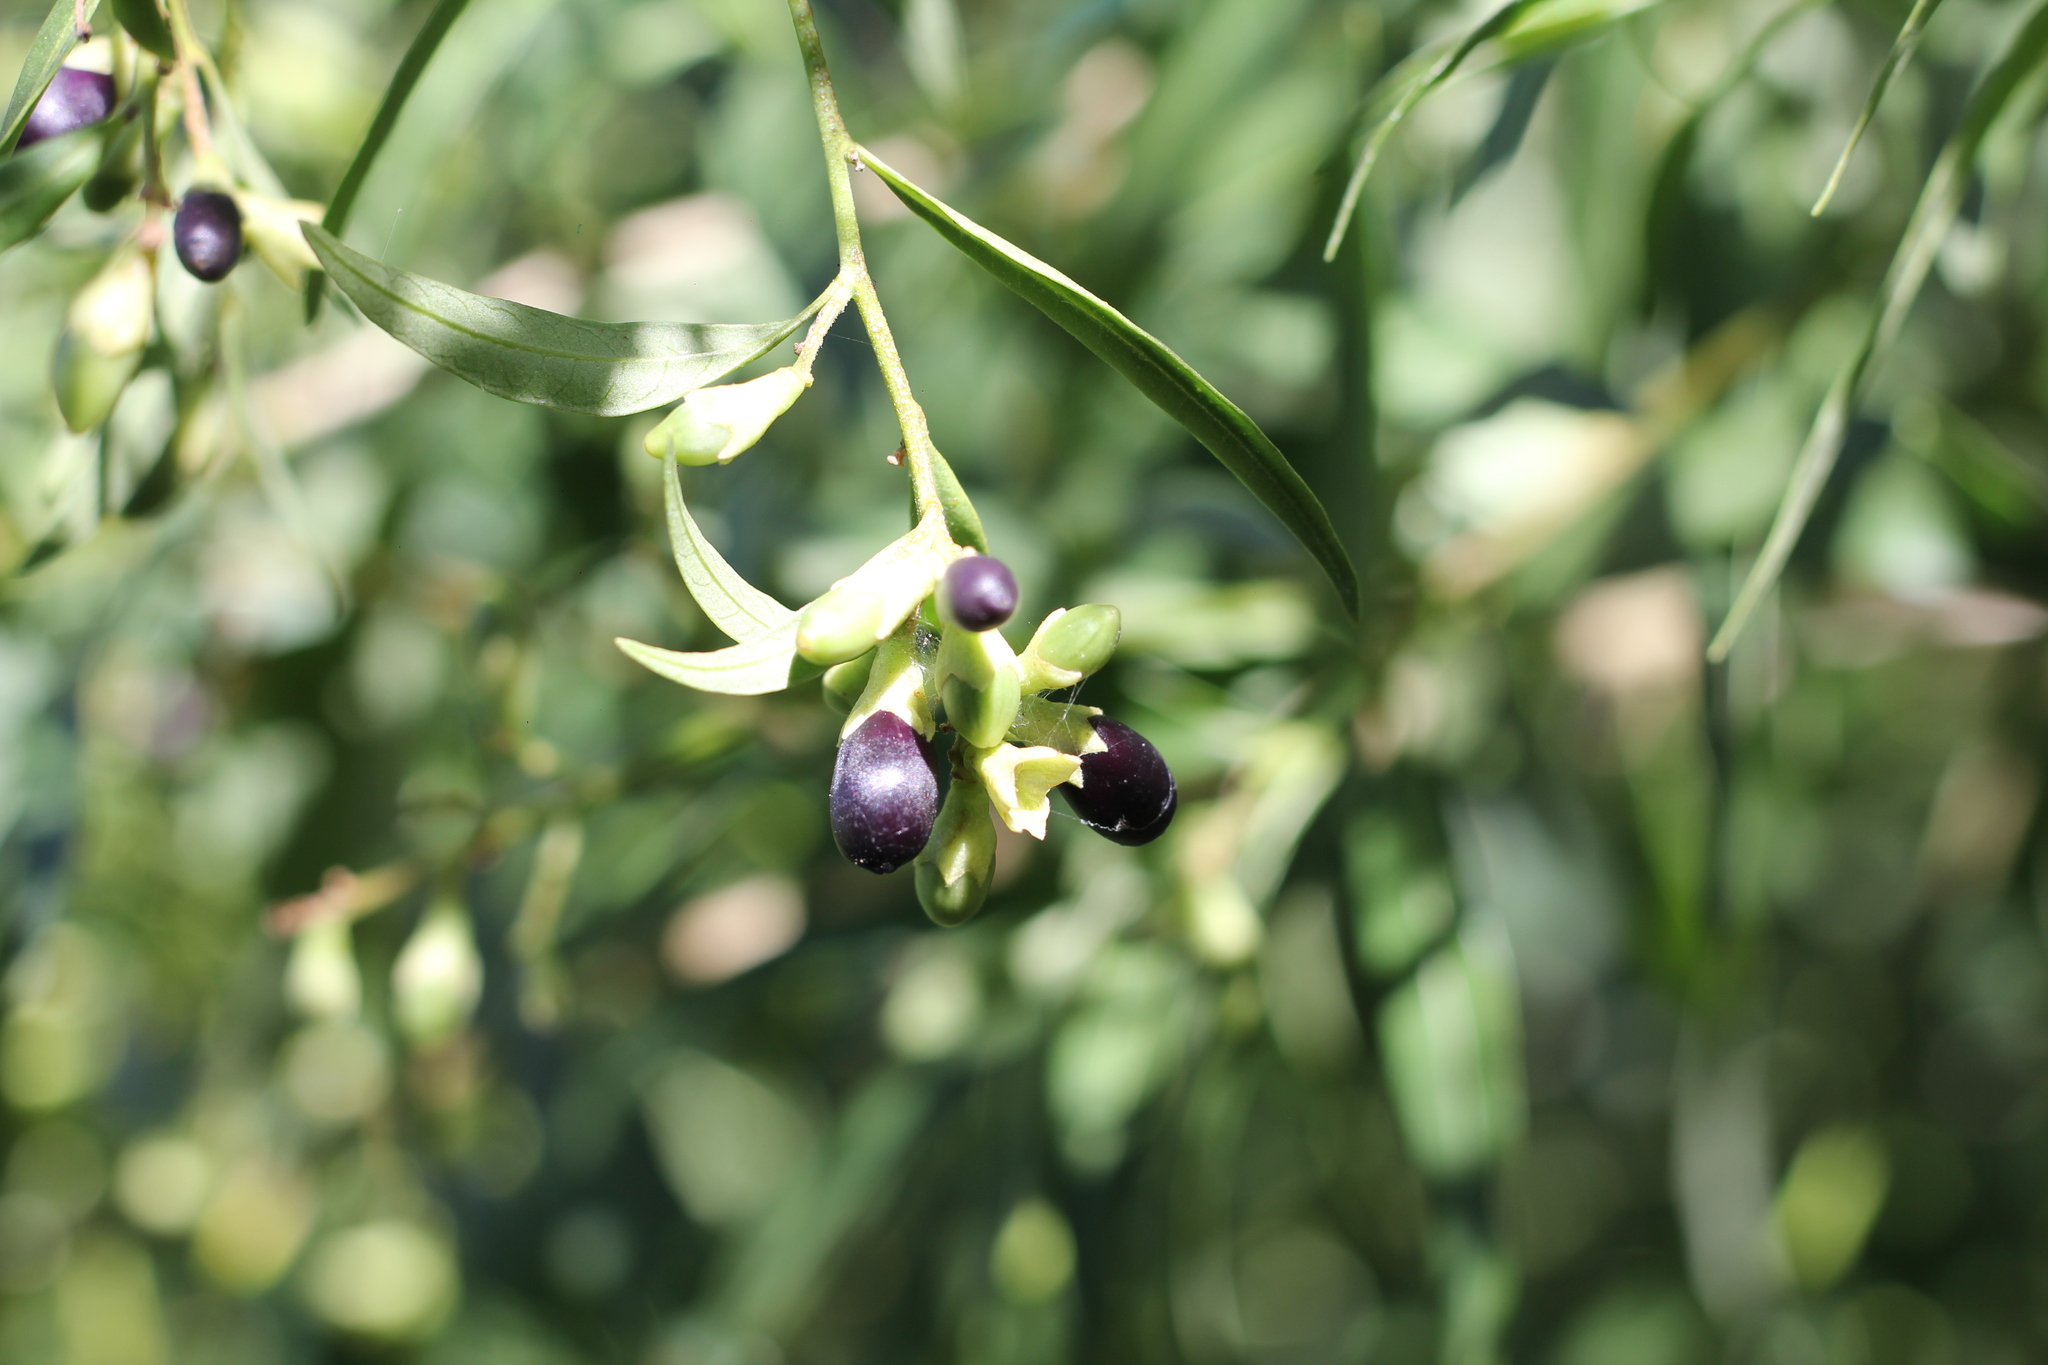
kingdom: Plantae
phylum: Tracheophyta
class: Magnoliopsida
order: Solanales
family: Solanaceae
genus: Cestrum
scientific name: Cestrum parqui
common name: Chilean cestrum
